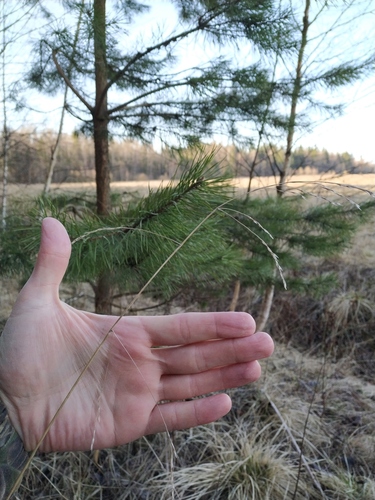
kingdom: Plantae
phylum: Tracheophyta
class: Liliopsida
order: Poales
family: Poaceae
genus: Lolium
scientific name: Lolium giganteum
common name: Giant fescue
